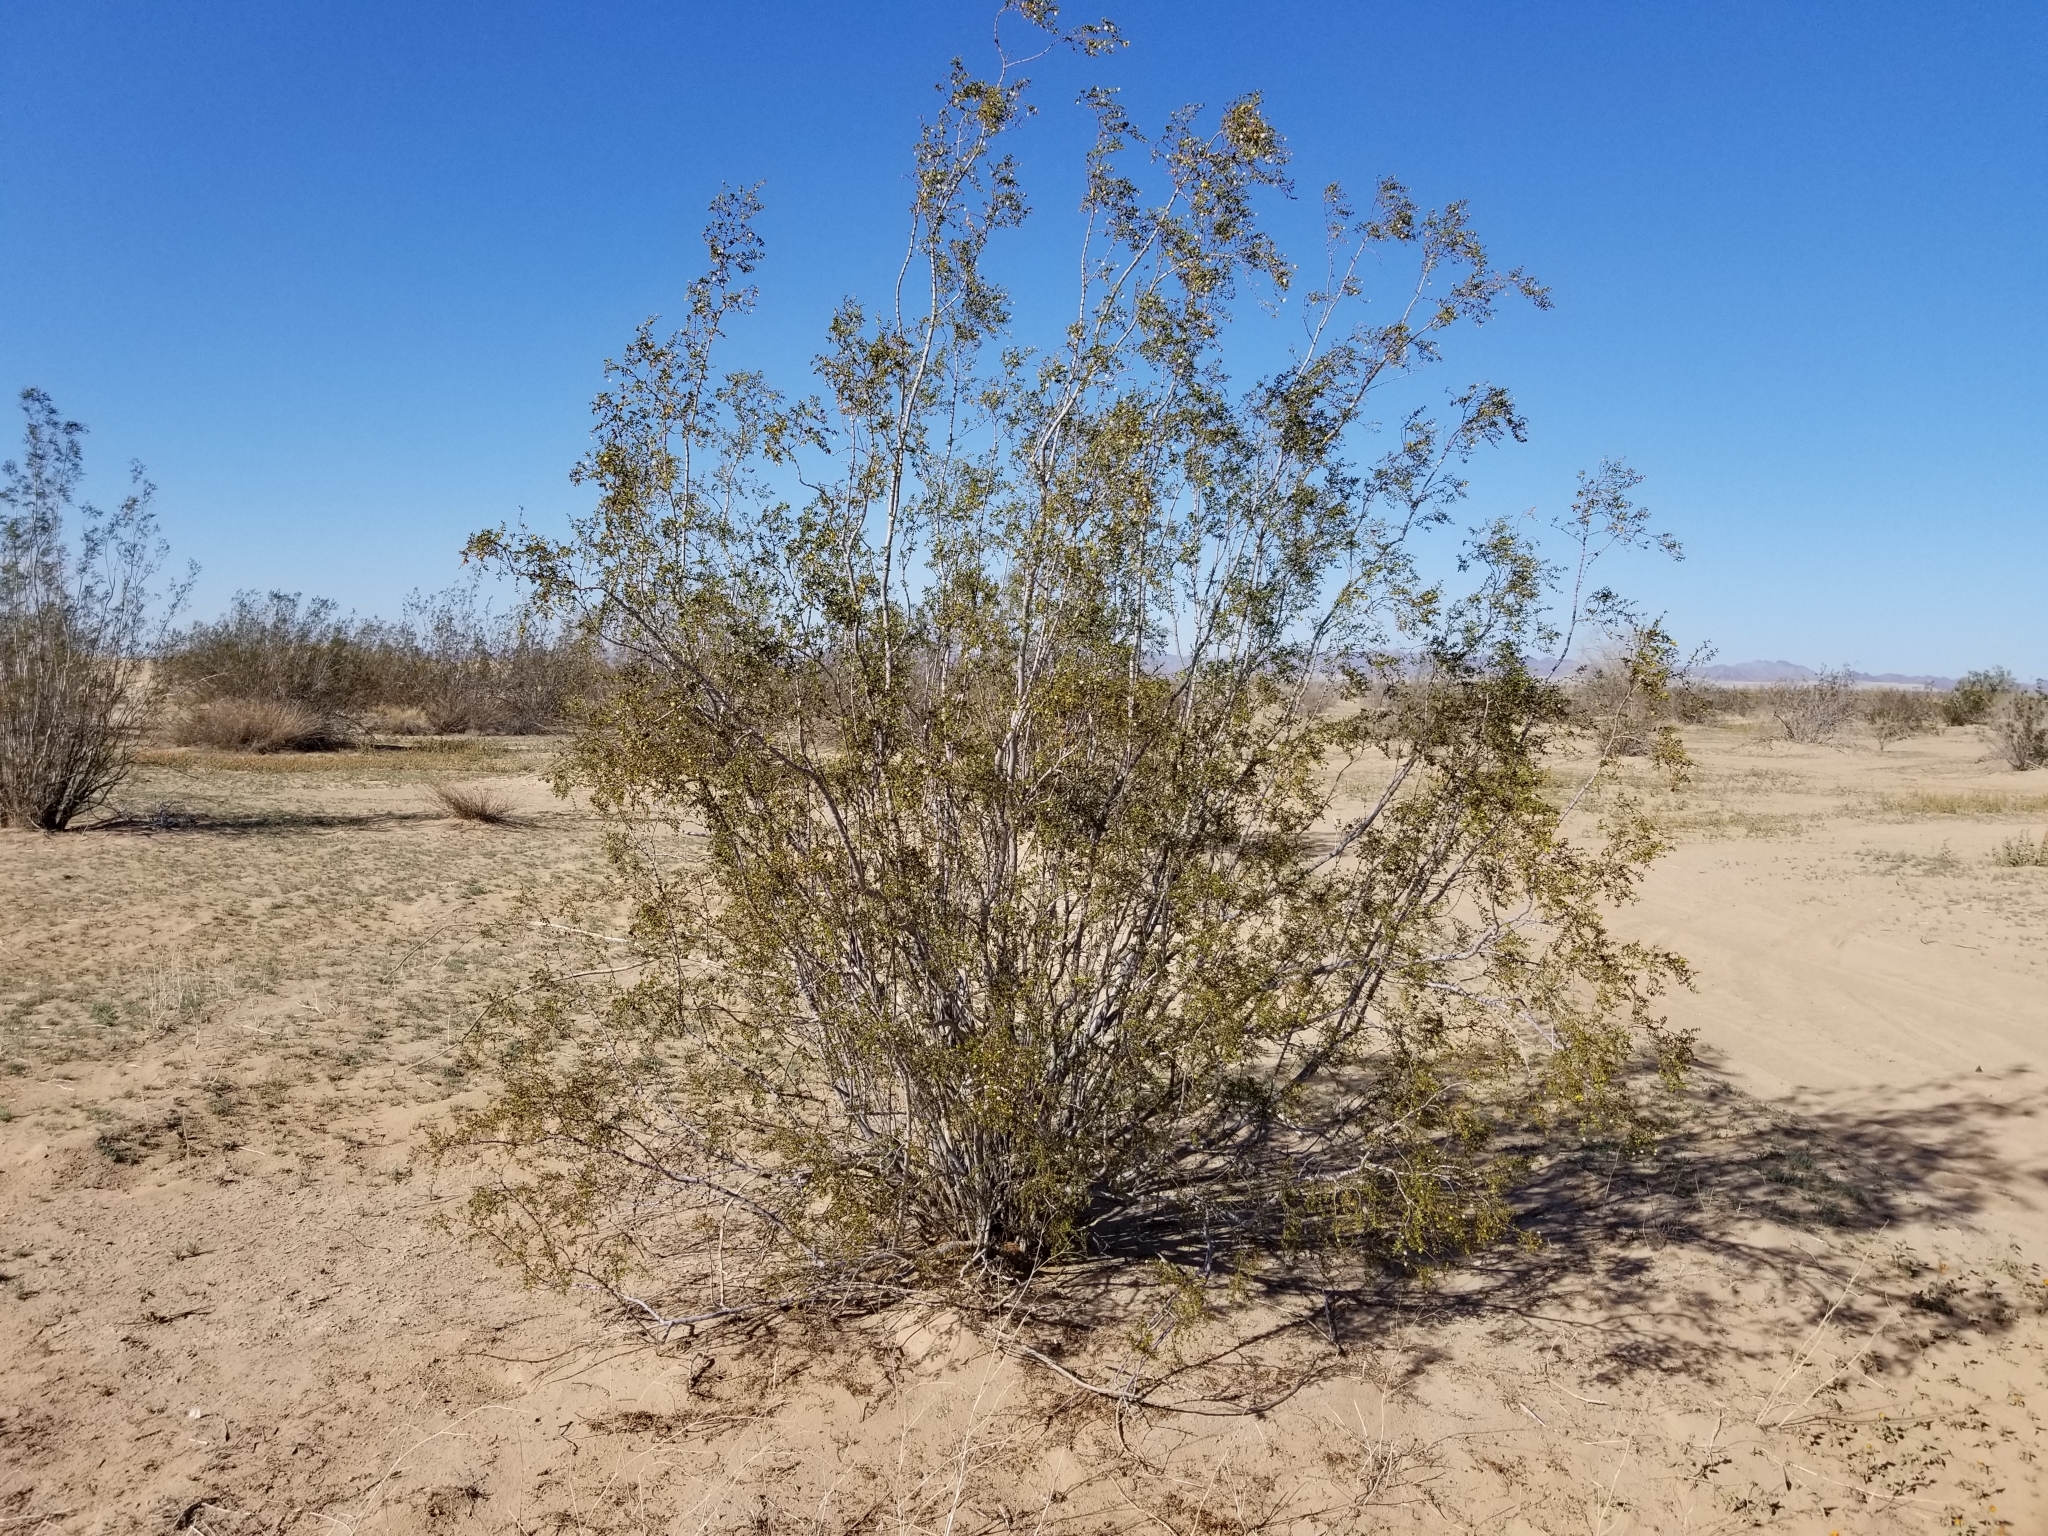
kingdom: Plantae
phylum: Tracheophyta
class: Magnoliopsida
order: Zygophyllales
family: Zygophyllaceae
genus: Larrea
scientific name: Larrea tridentata
